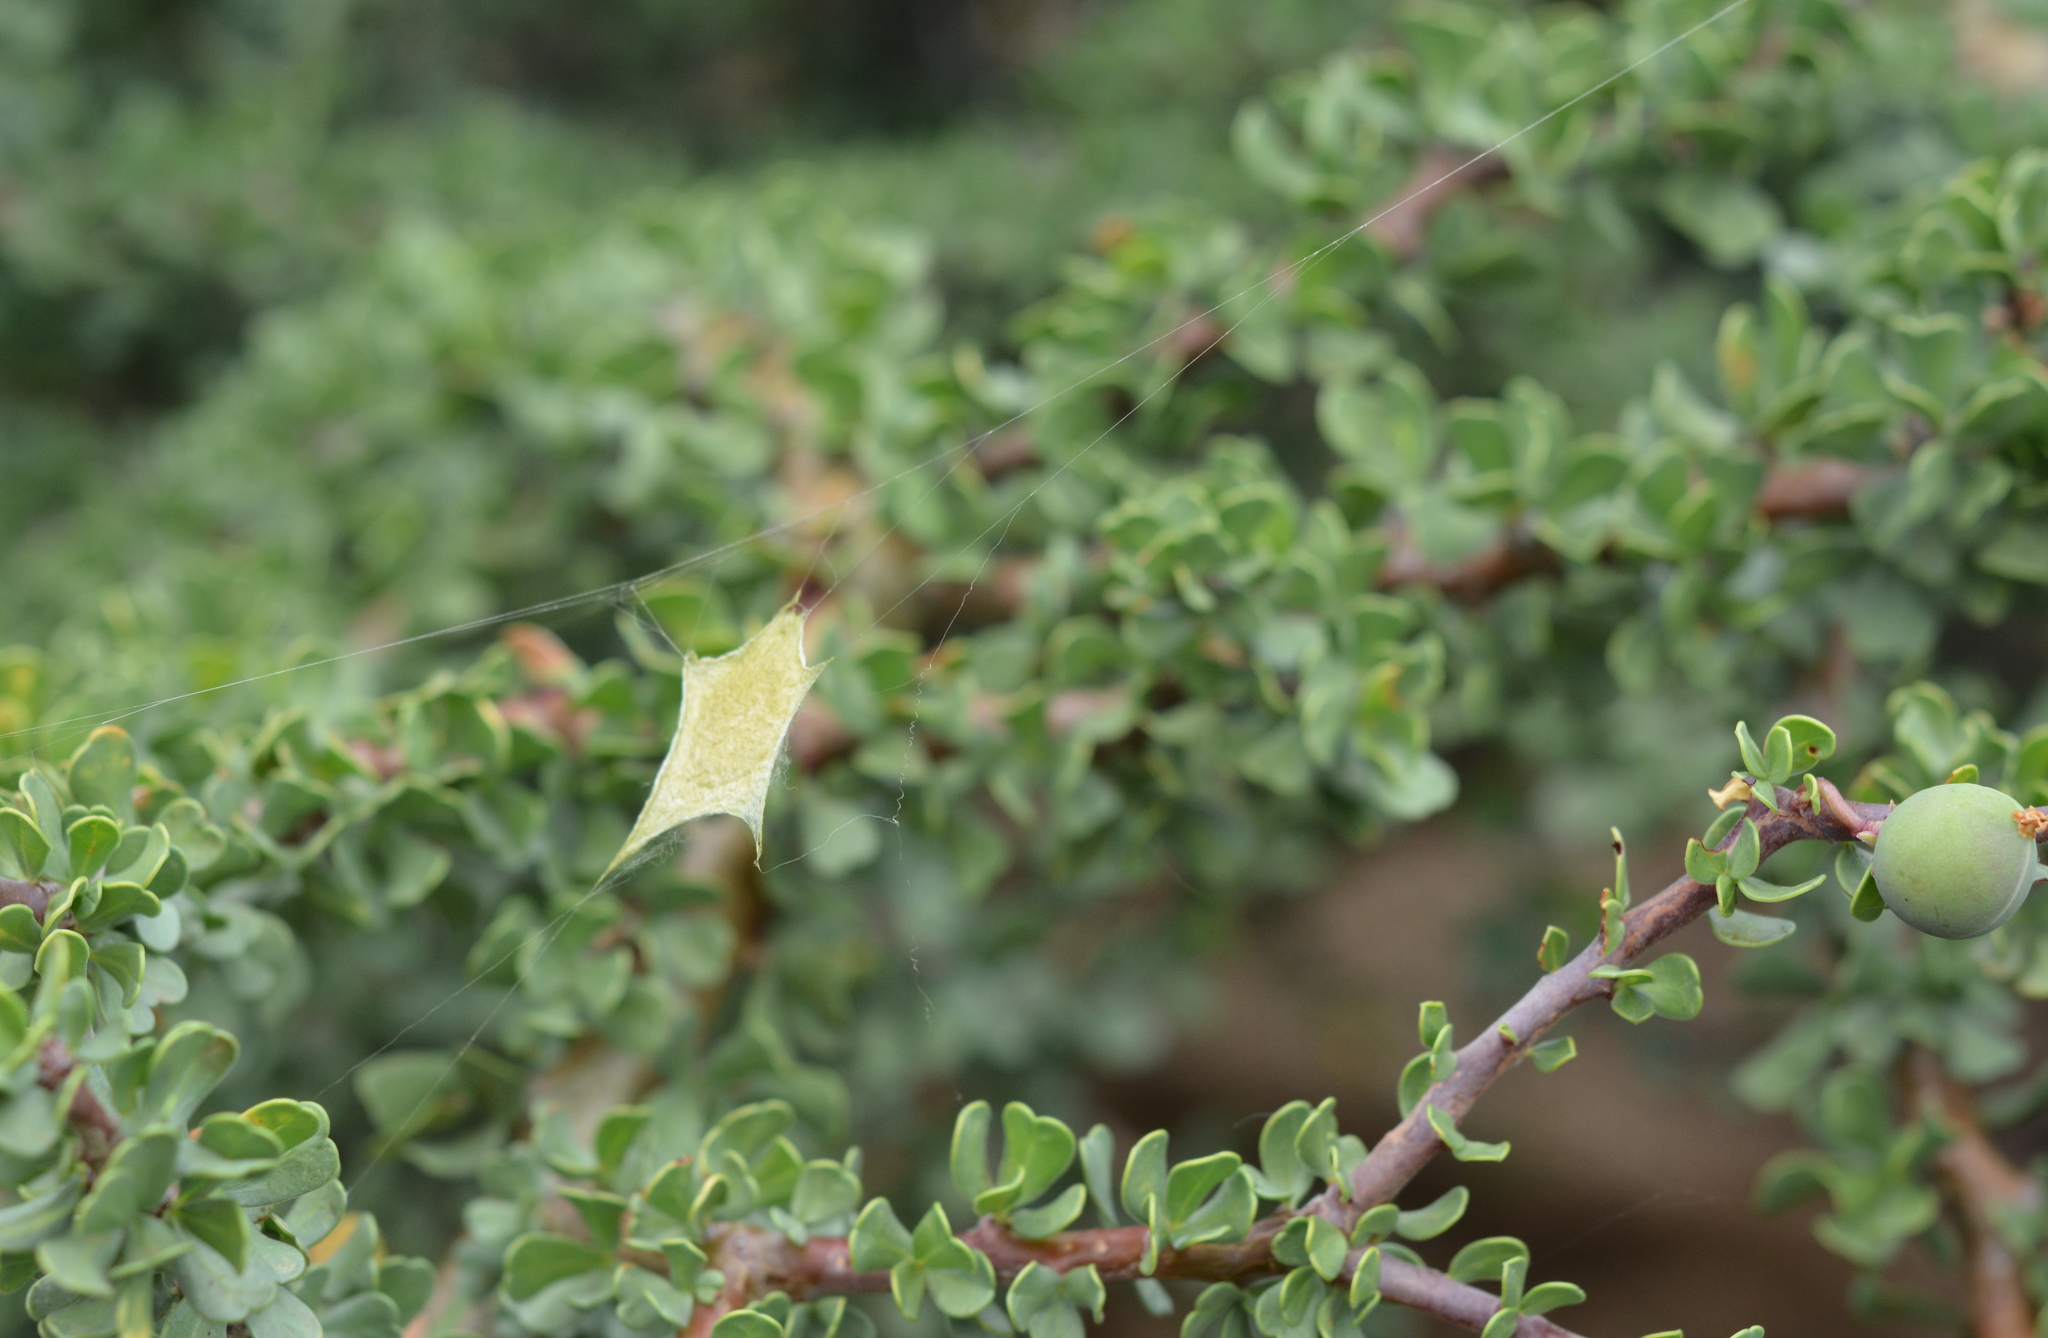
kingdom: Animalia
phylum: Arthropoda
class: Arachnida
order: Araneae
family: Araneidae
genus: Argiope
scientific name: Argiope argentata
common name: Orb weavers
